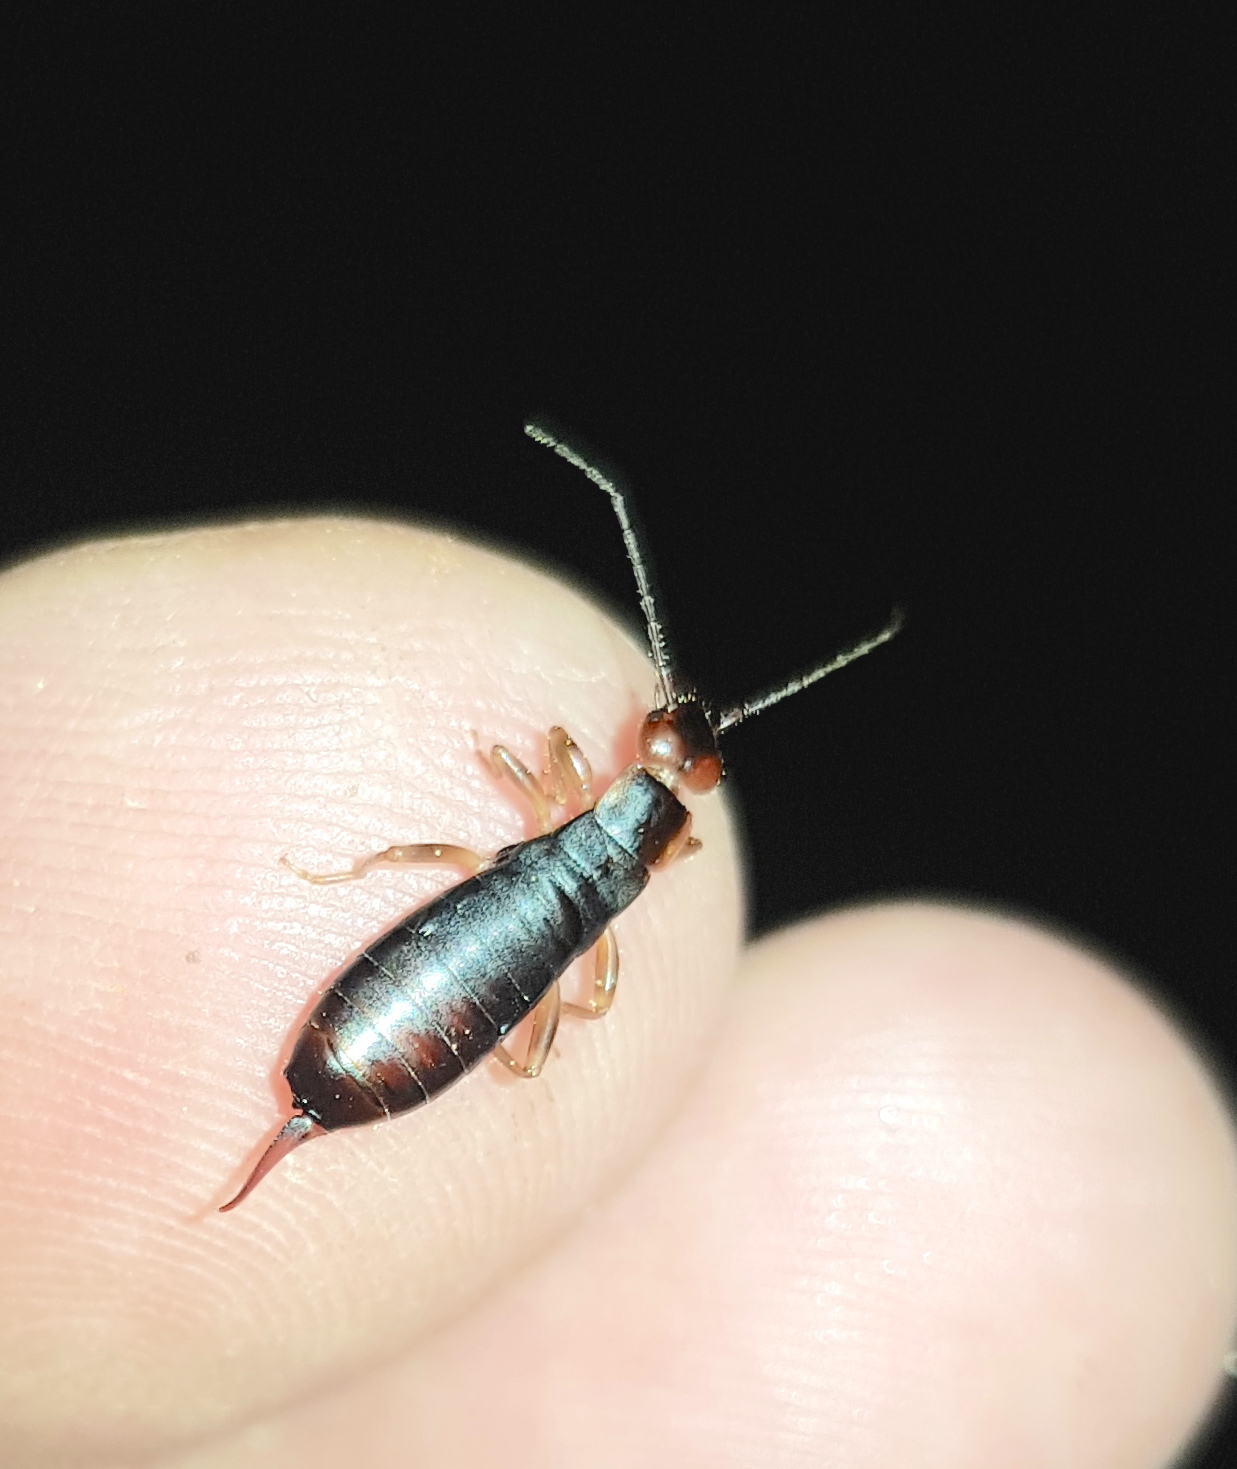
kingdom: Animalia
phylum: Arthropoda
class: Insecta
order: Dermaptera
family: Forficulidae
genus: Metresura
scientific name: Metresura ruficeps
